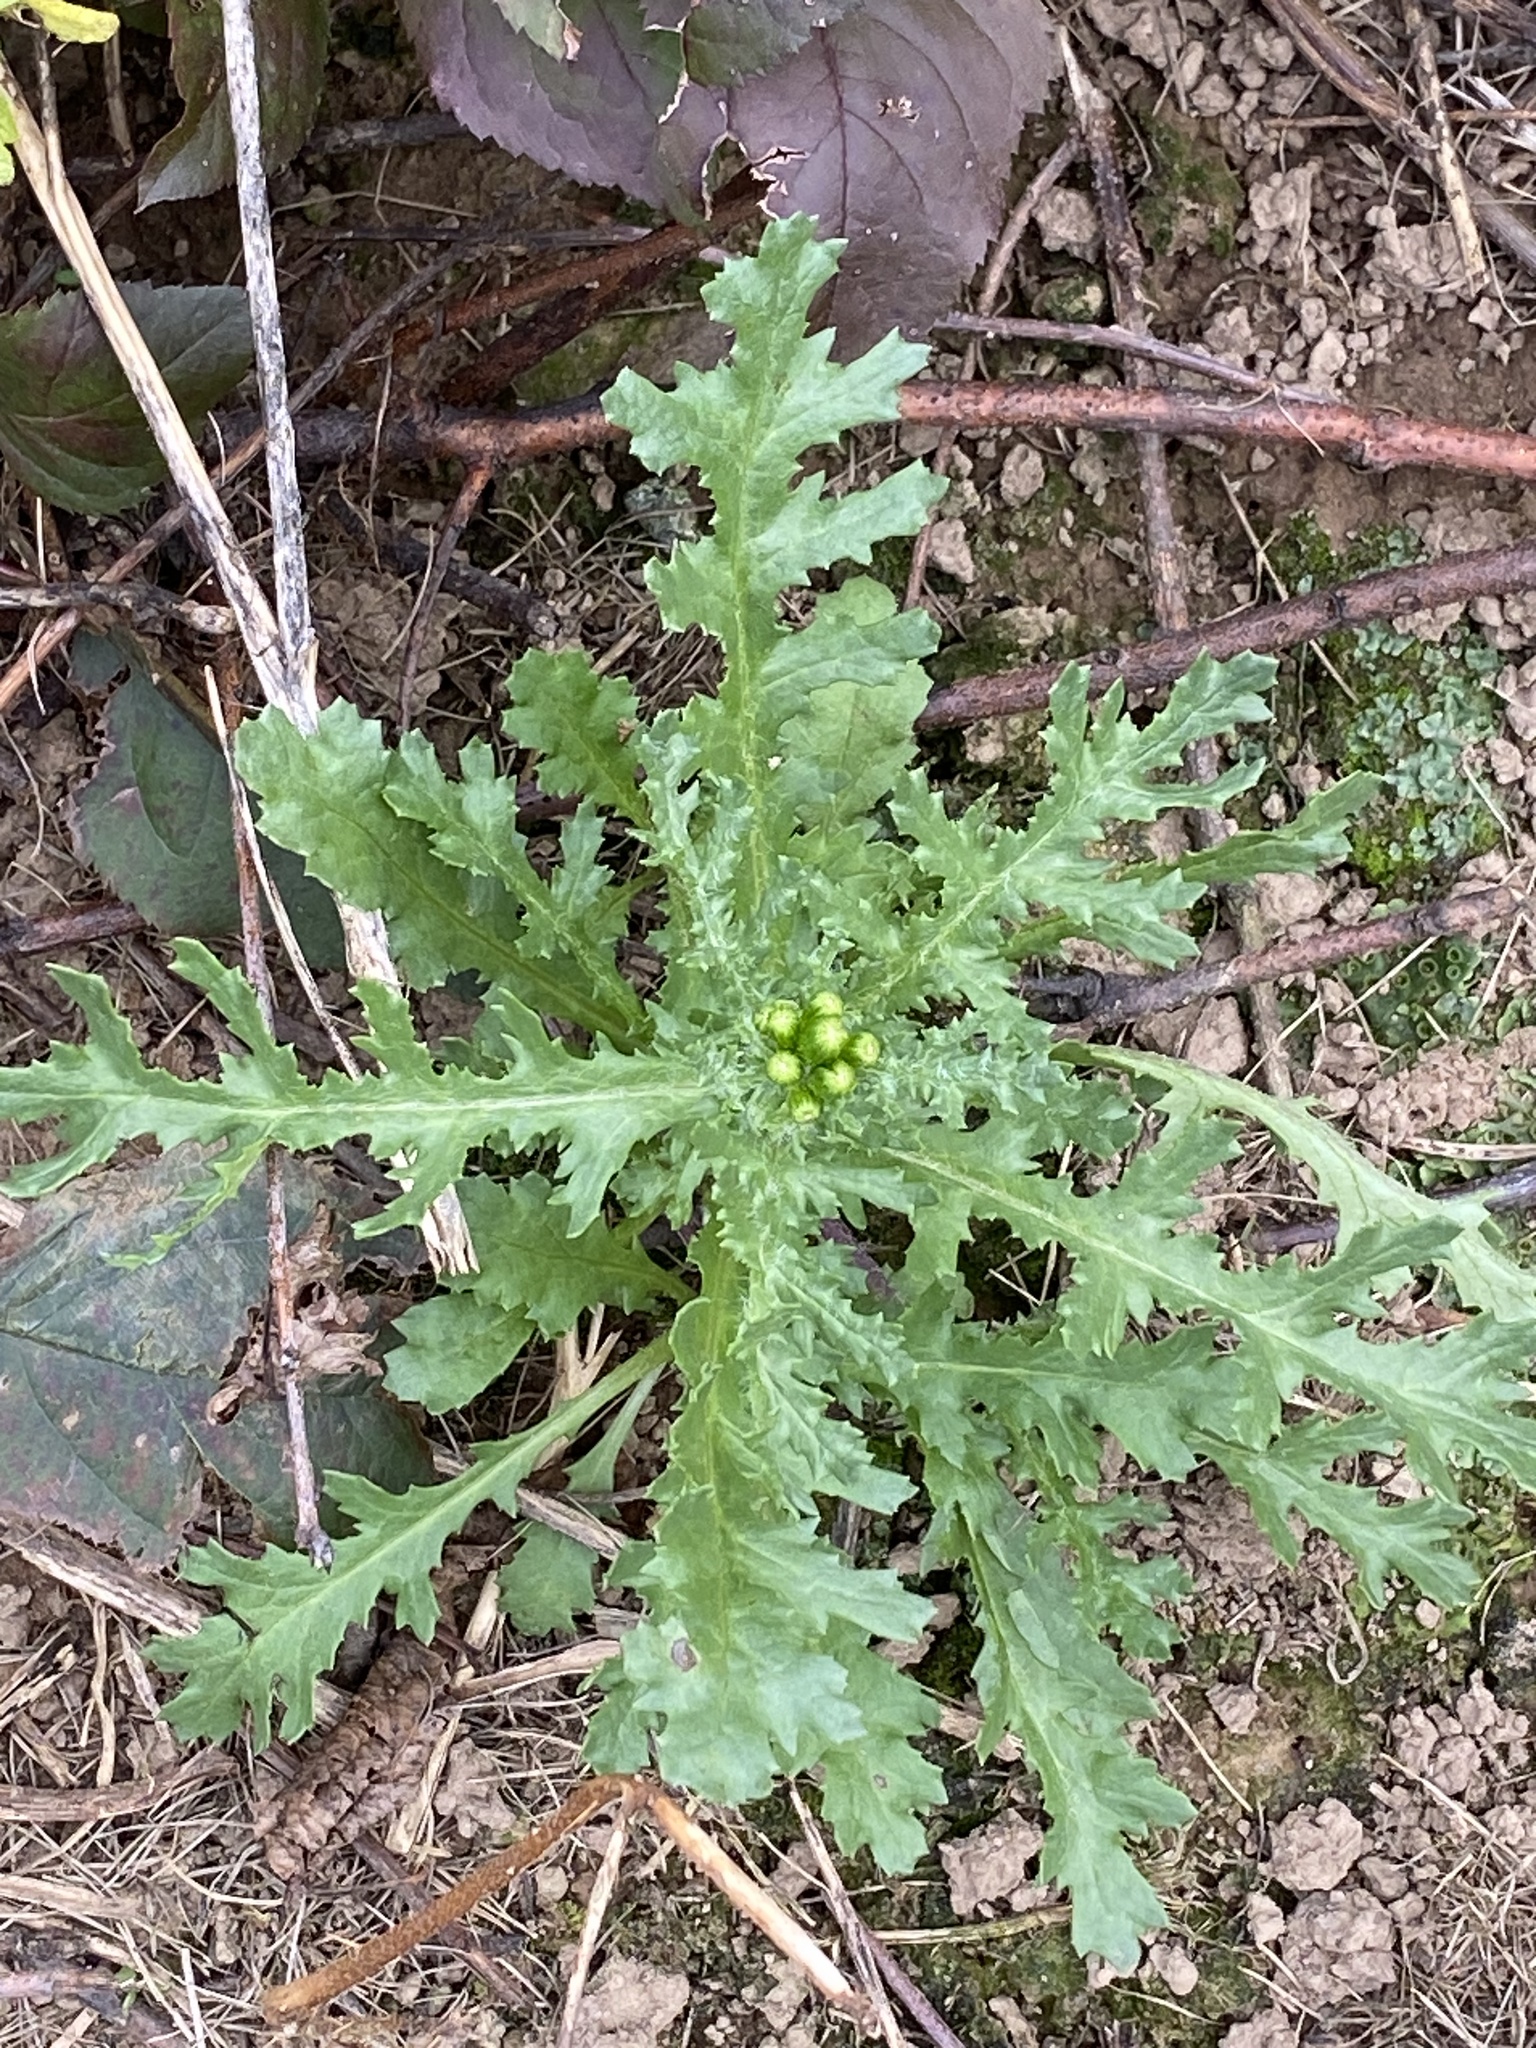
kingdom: Plantae
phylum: Tracheophyta
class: Magnoliopsida
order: Asterales
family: Asteraceae
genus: Senecio
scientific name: Senecio vulgaris
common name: Old-man-in-the-spring
